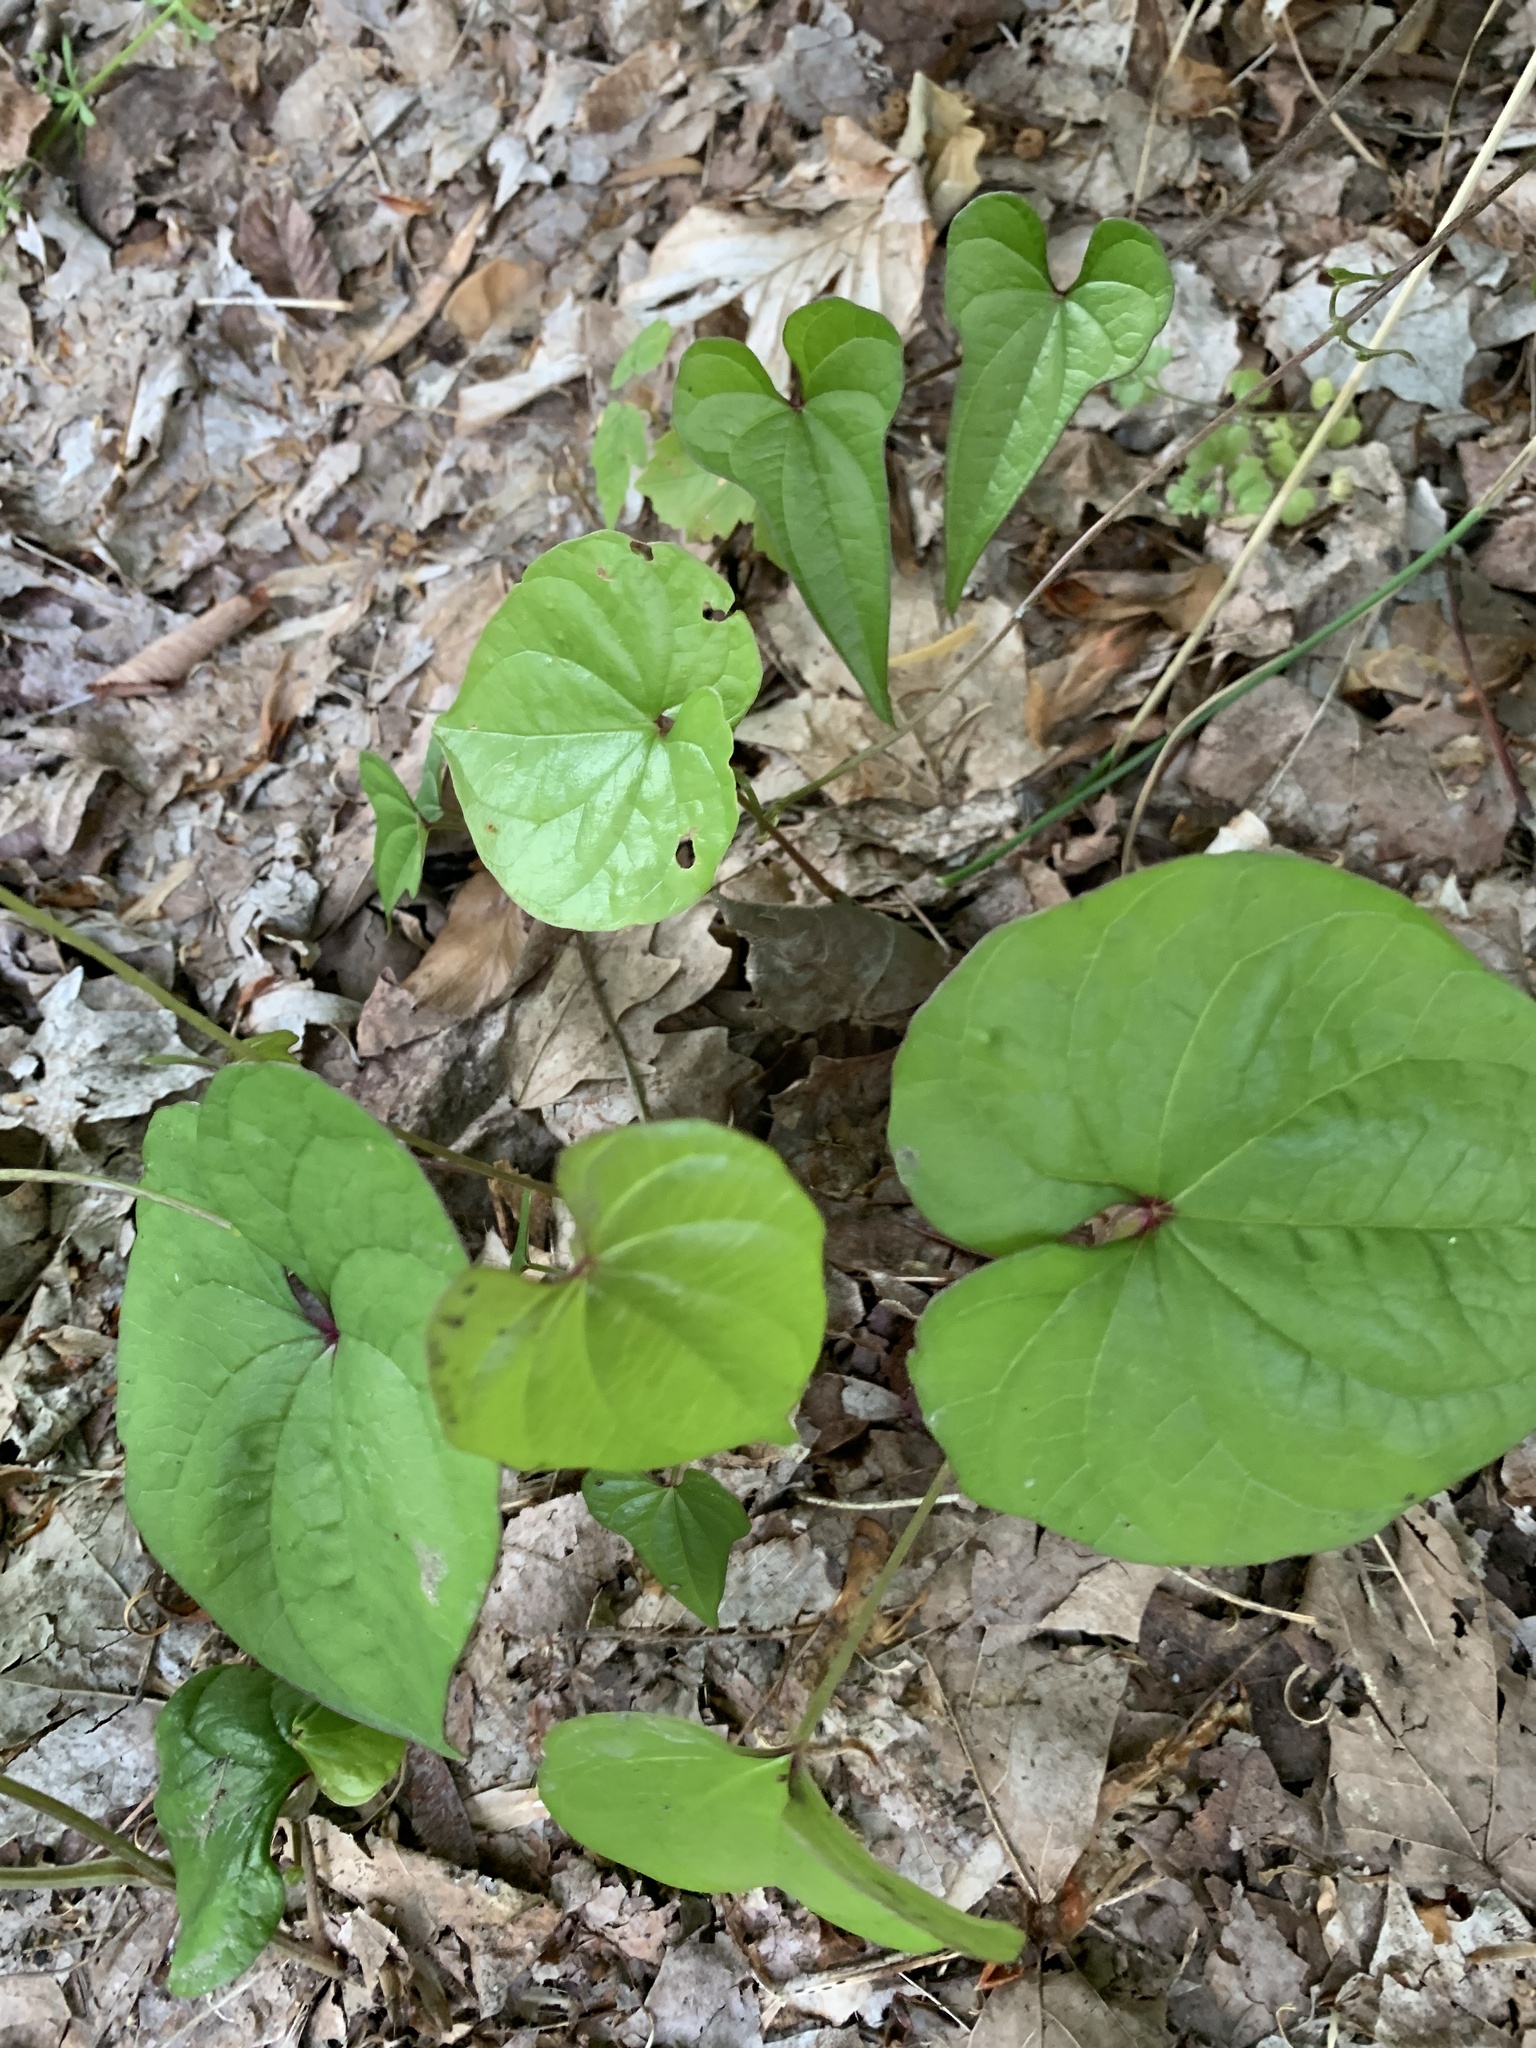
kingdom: Plantae
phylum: Tracheophyta
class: Liliopsida
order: Dioscoreales
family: Dioscoreaceae
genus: Dioscorea
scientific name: Dioscorea polystachya
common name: Chinese yam
